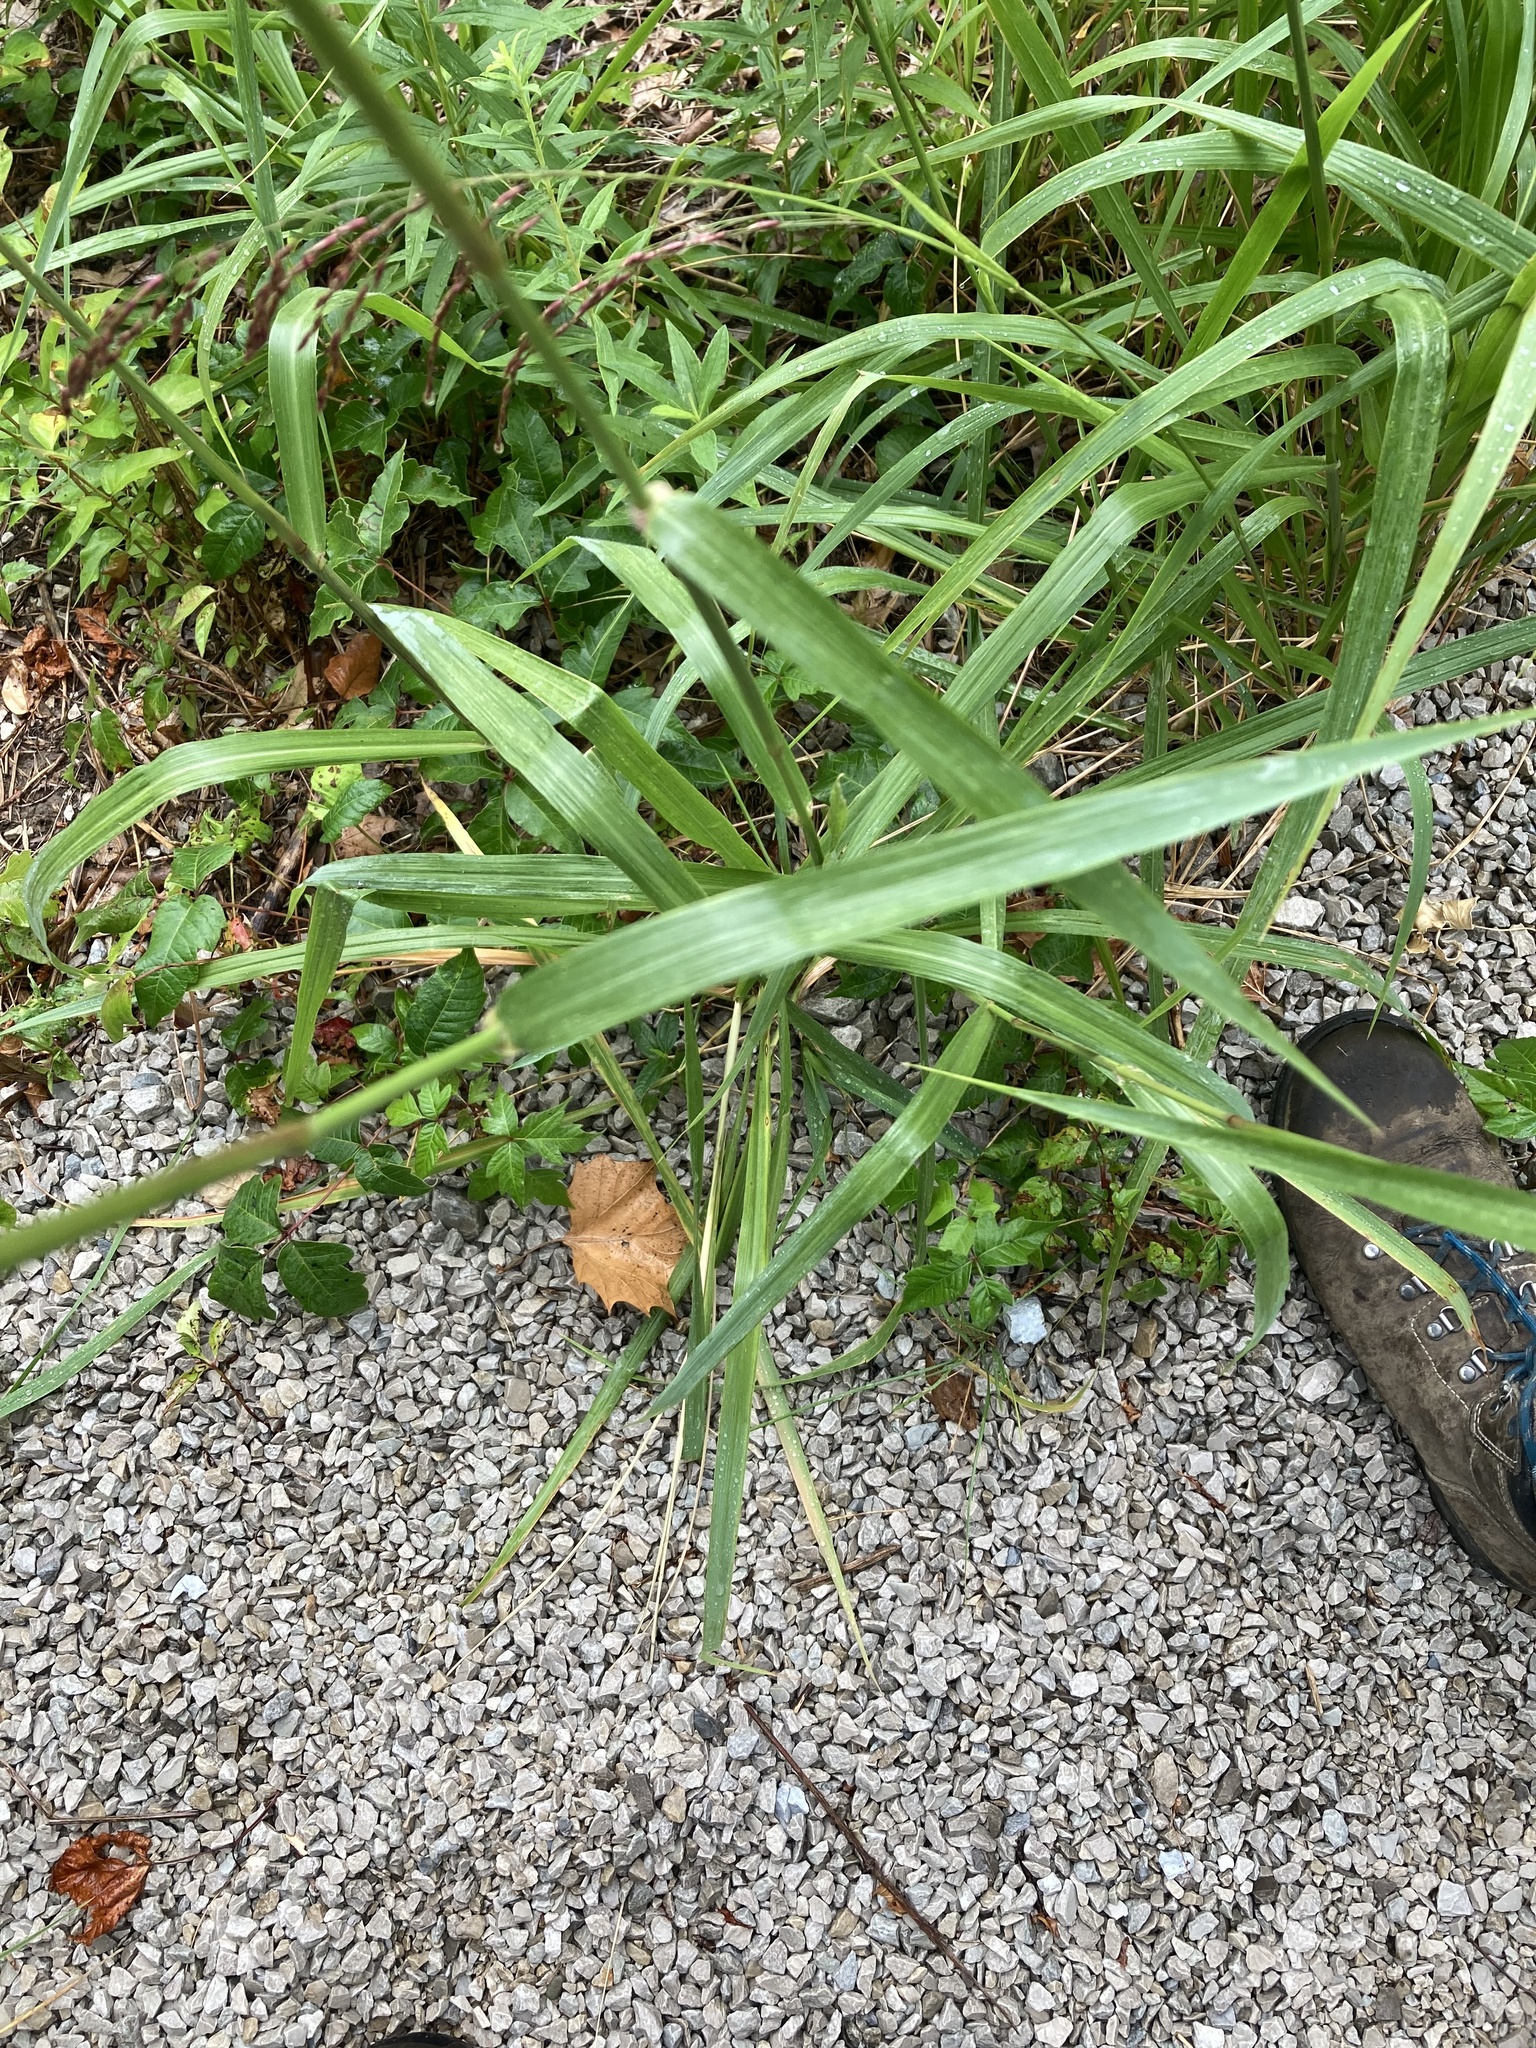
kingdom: Plantae
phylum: Tracheophyta
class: Liliopsida
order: Poales
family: Poaceae
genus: Tridens
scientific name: Tridens flavus
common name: Purpletop
